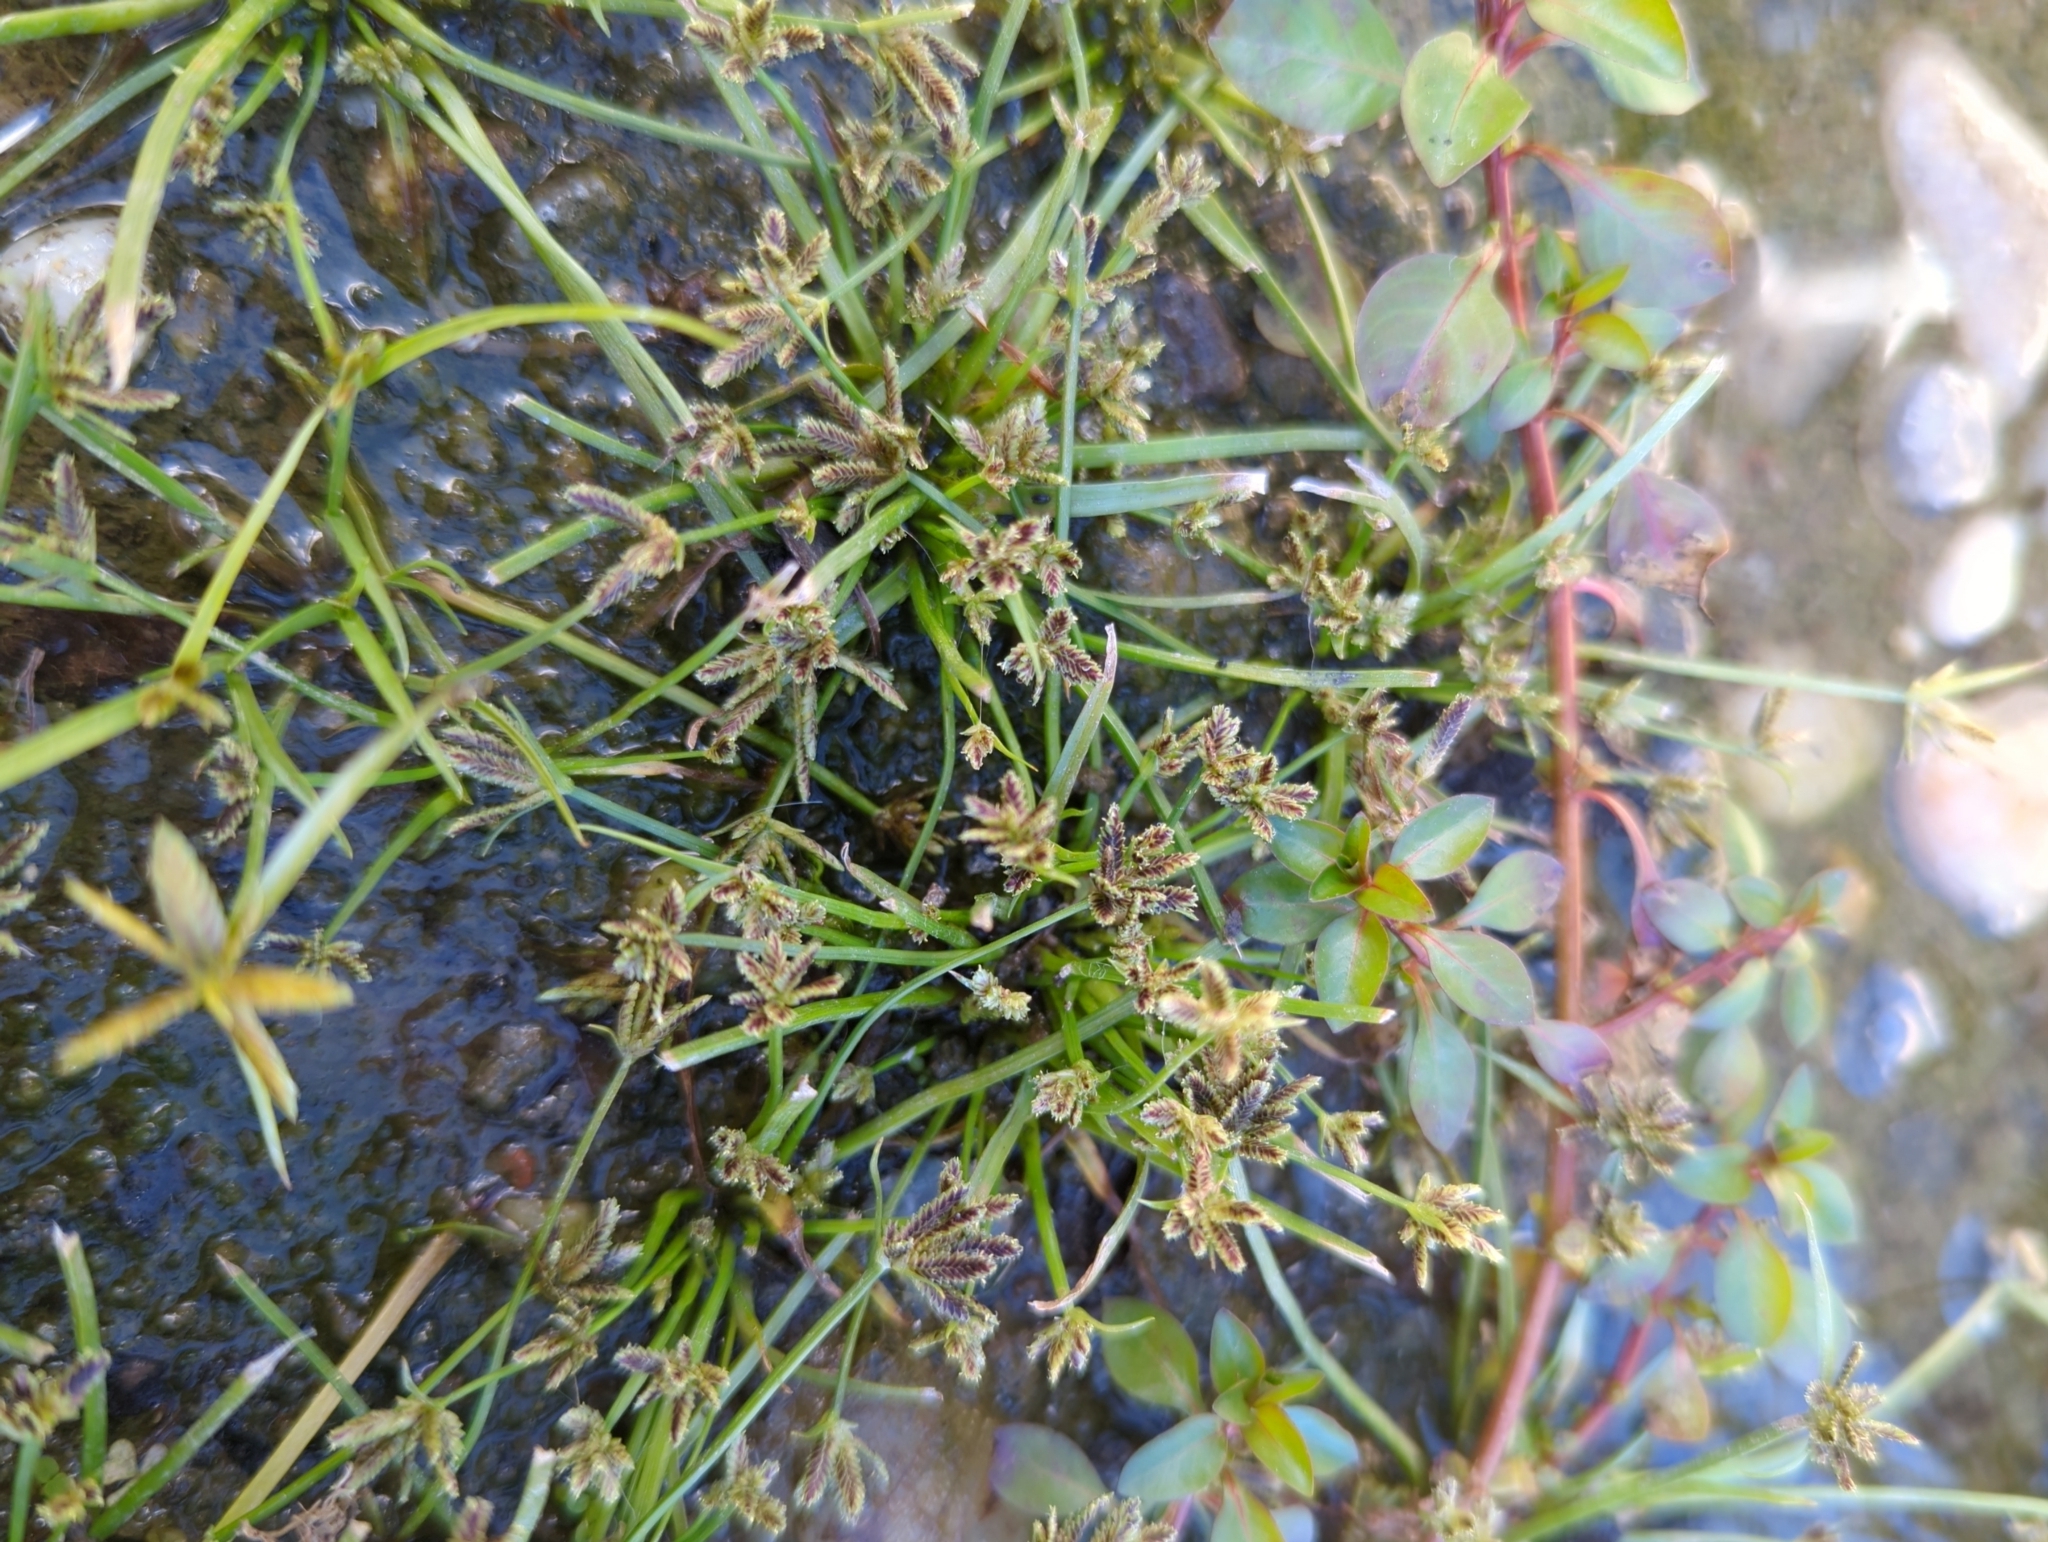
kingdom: Plantae
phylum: Tracheophyta
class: Liliopsida
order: Poales
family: Cyperaceae
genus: Cyperus
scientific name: Cyperus fuscus
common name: Brown galingale
